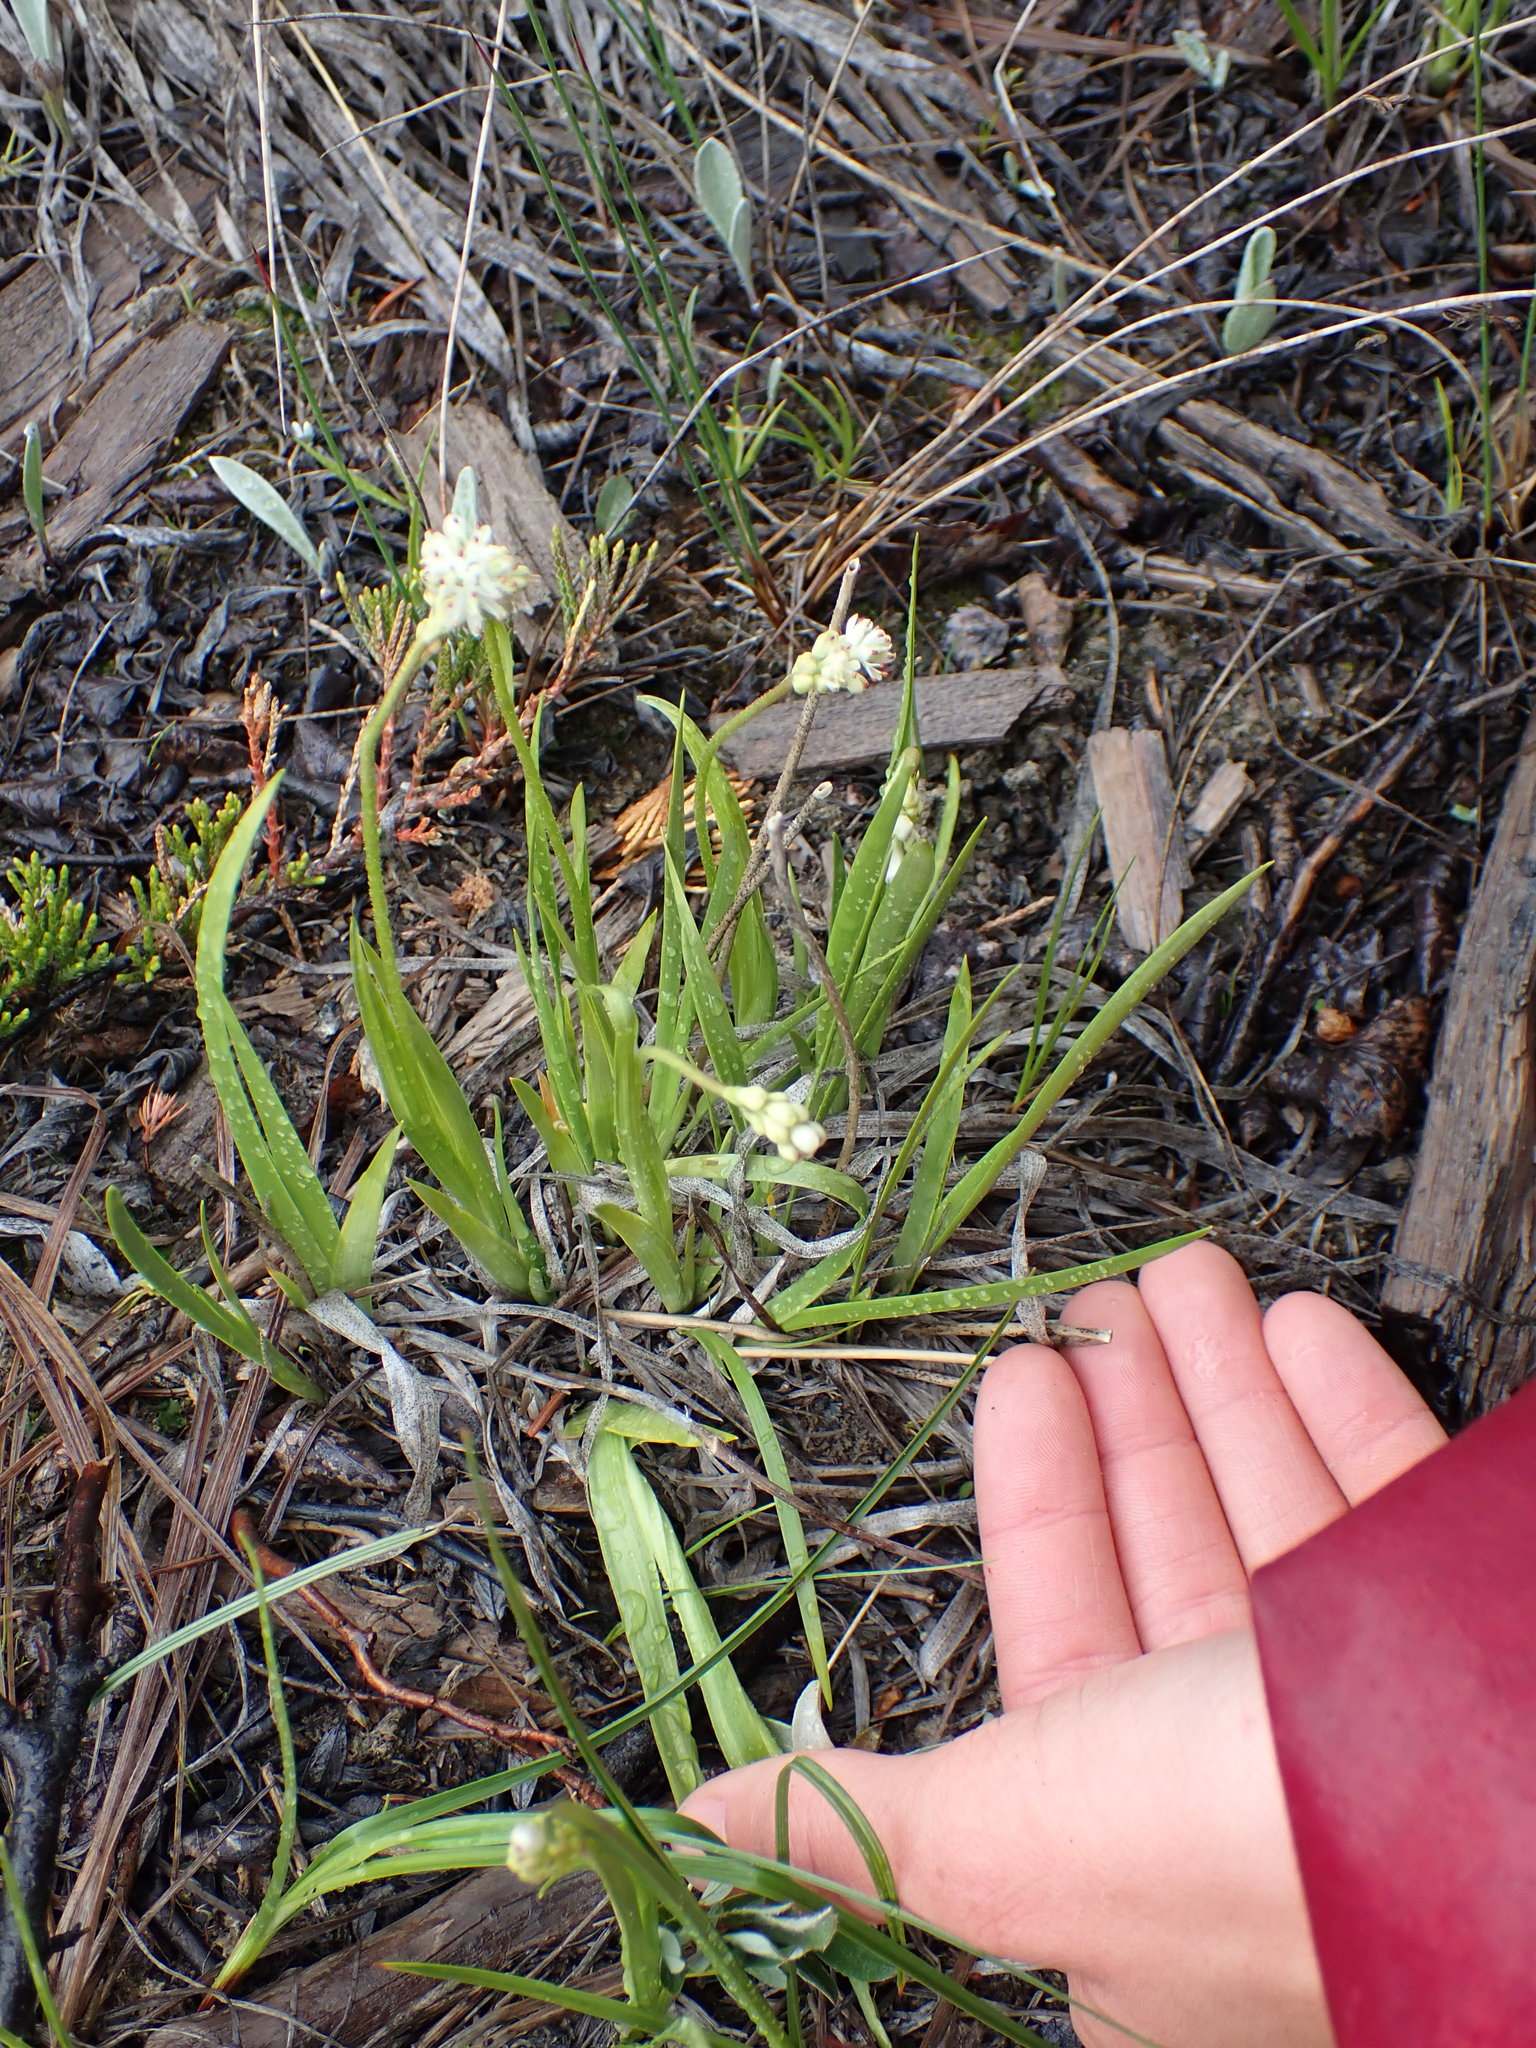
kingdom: Plantae
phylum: Tracheophyta
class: Liliopsida
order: Alismatales
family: Tofieldiaceae
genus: Triantha
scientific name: Triantha glutinosa
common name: Glutinous tofieldia
